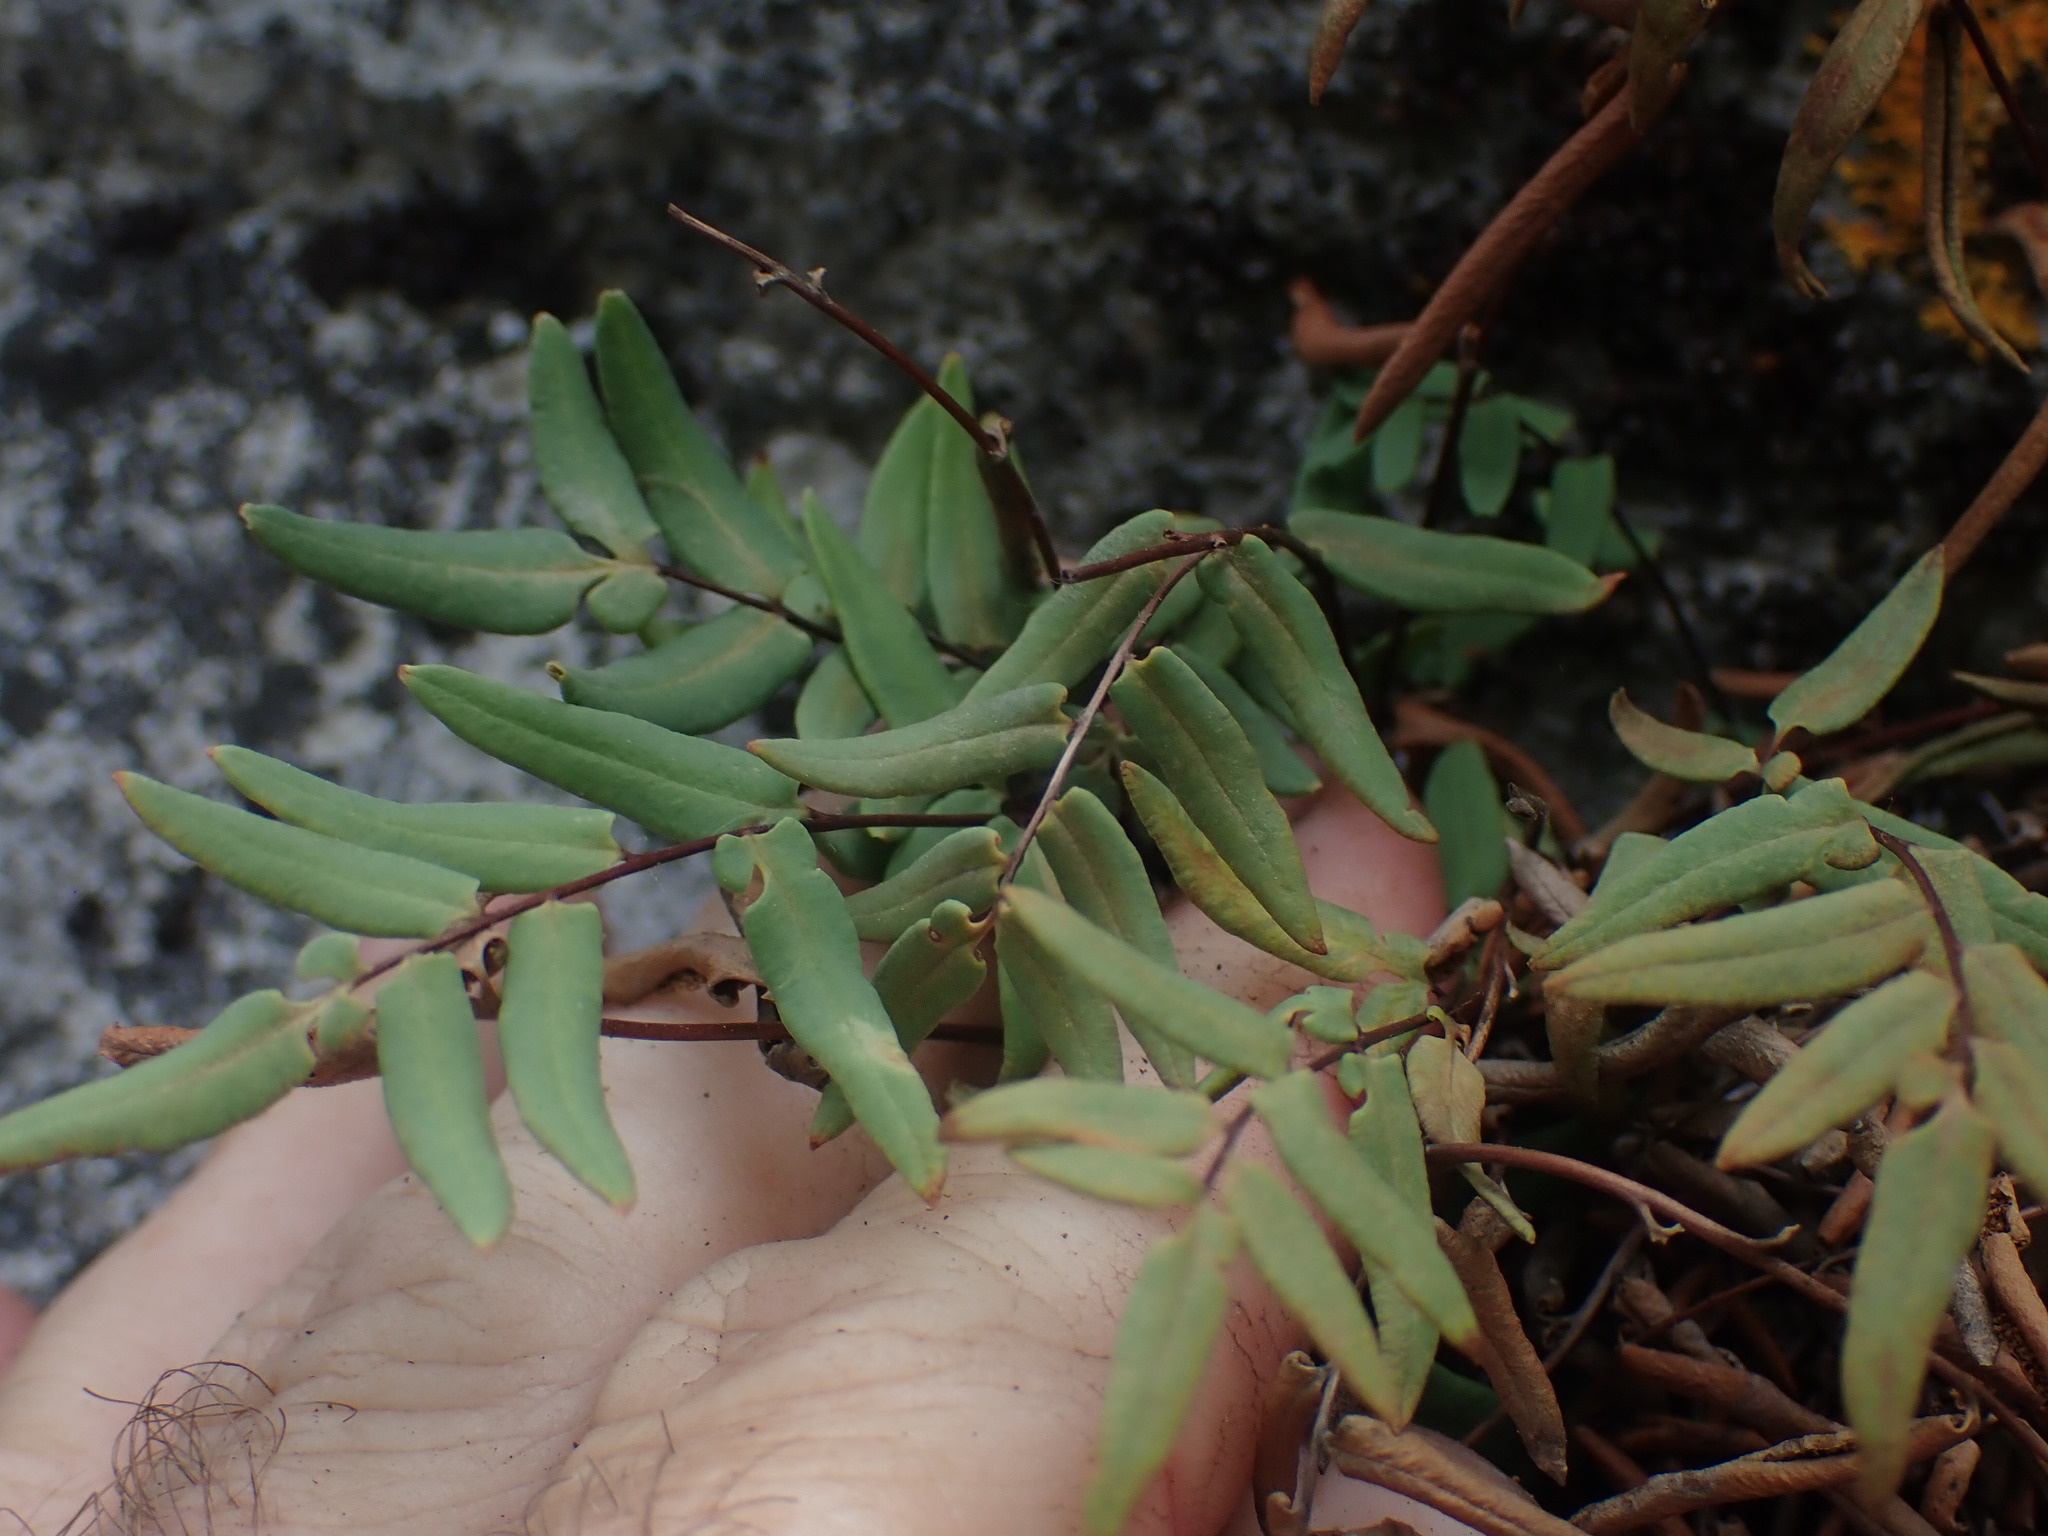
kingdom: Plantae
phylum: Tracheophyta
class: Polypodiopsida
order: Polypodiales
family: Pteridaceae
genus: Pellaea
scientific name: Pellaea glabella
